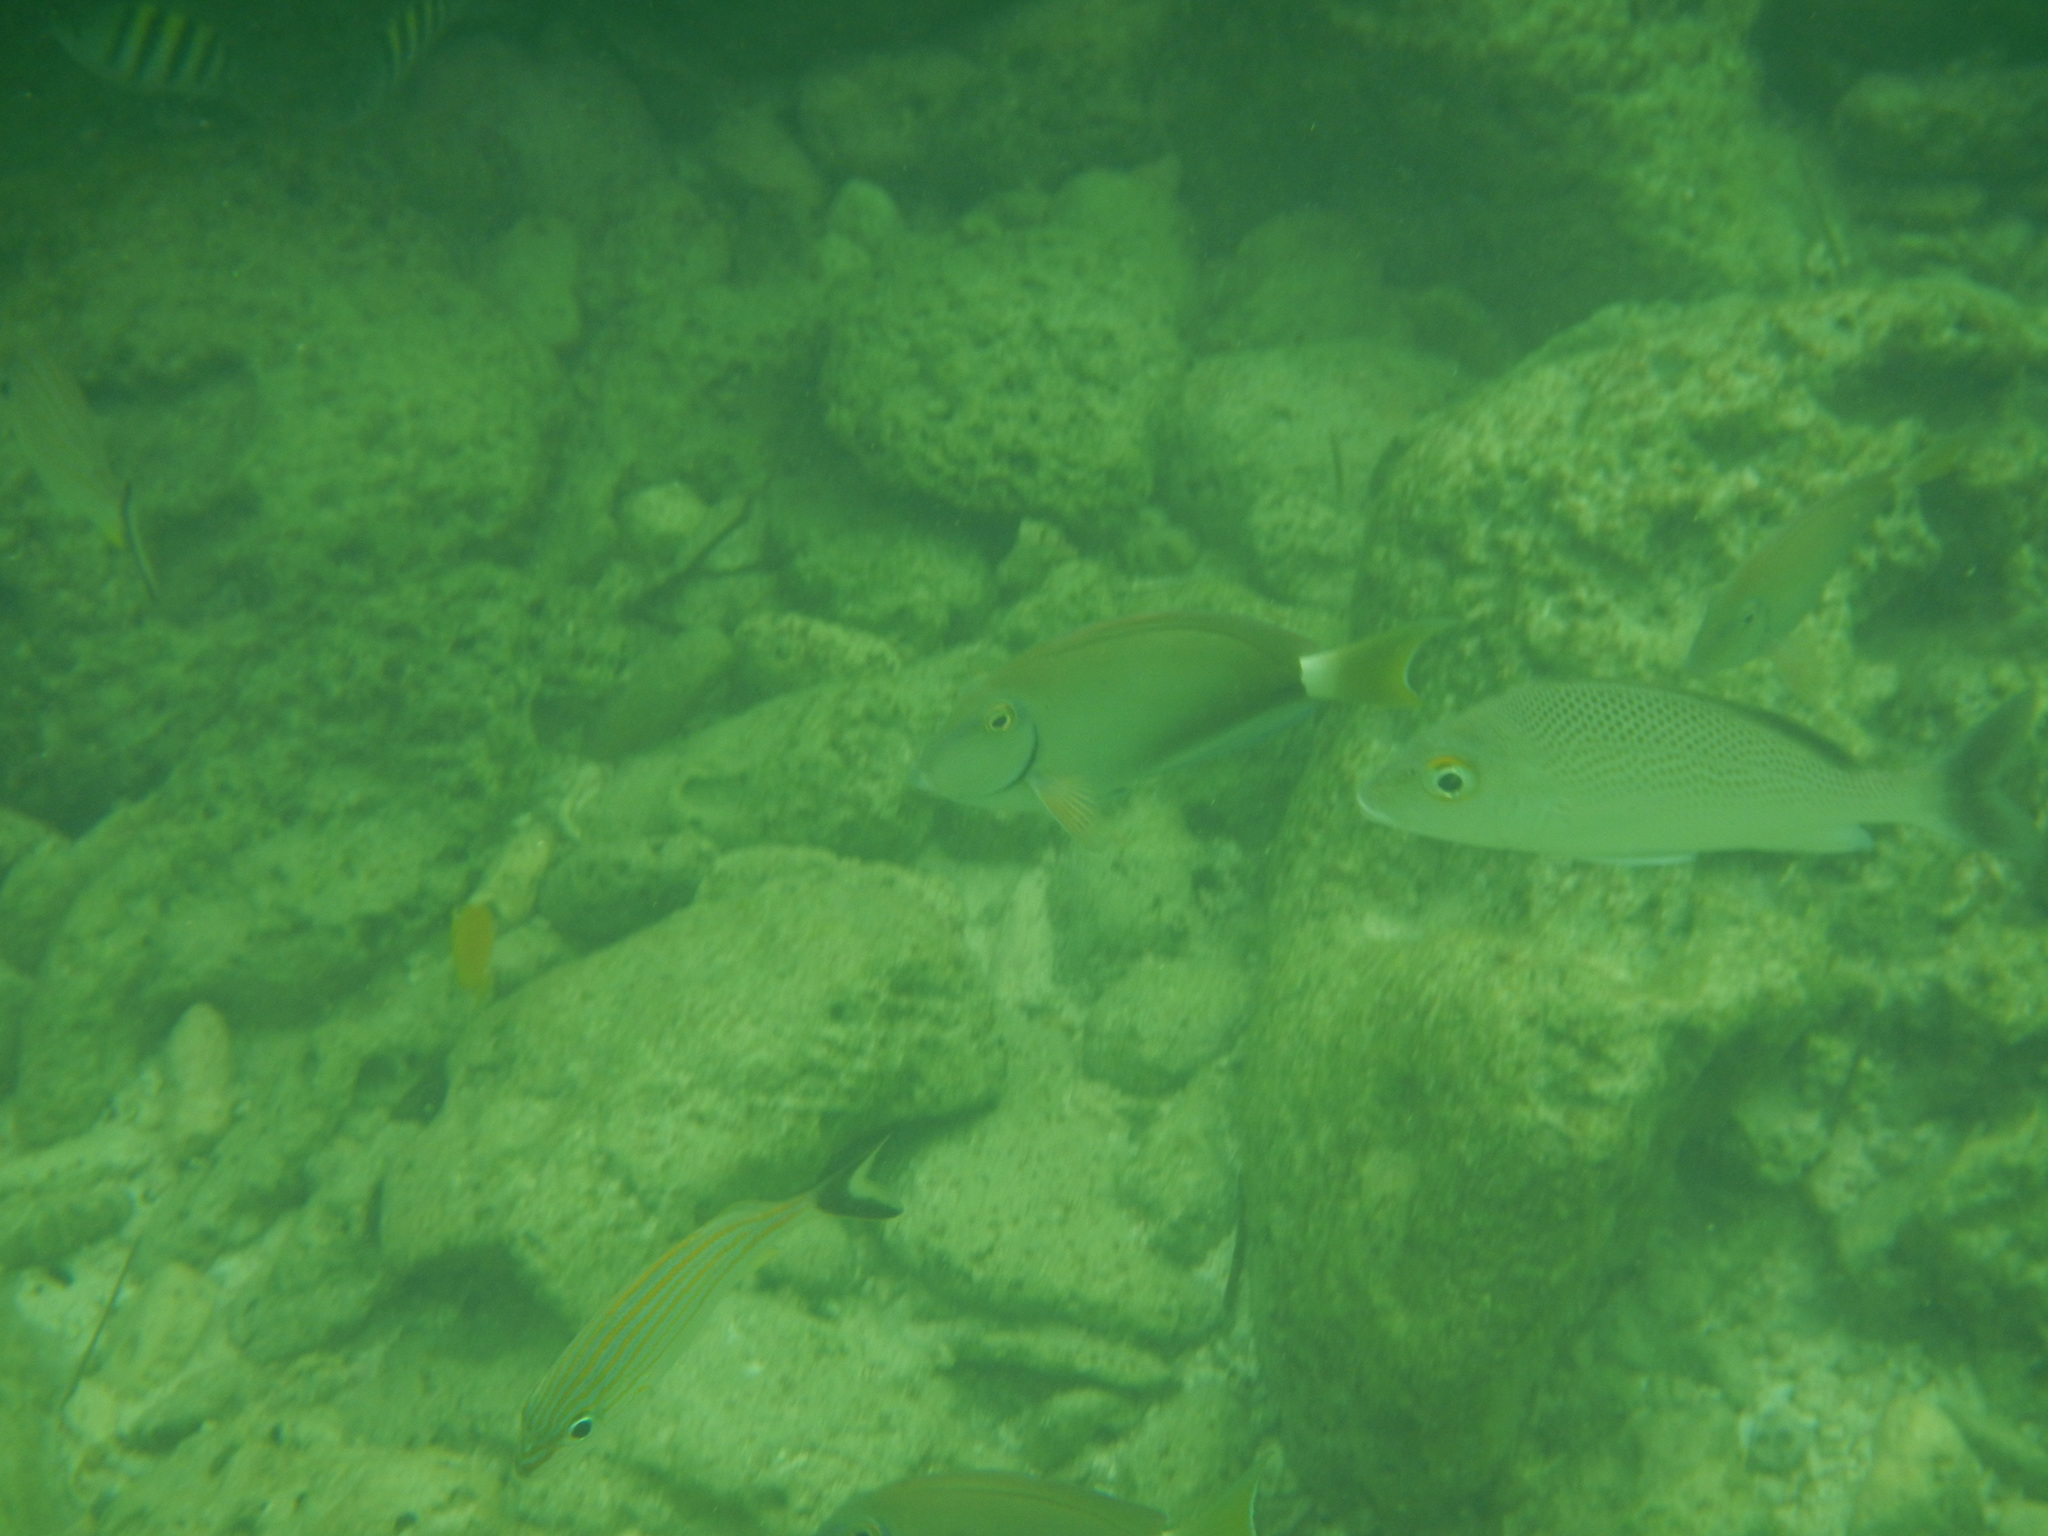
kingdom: Animalia
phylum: Chordata
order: Perciformes
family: Haemulidae
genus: Haemulon
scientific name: Haemulon parra
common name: Sailor's choice
